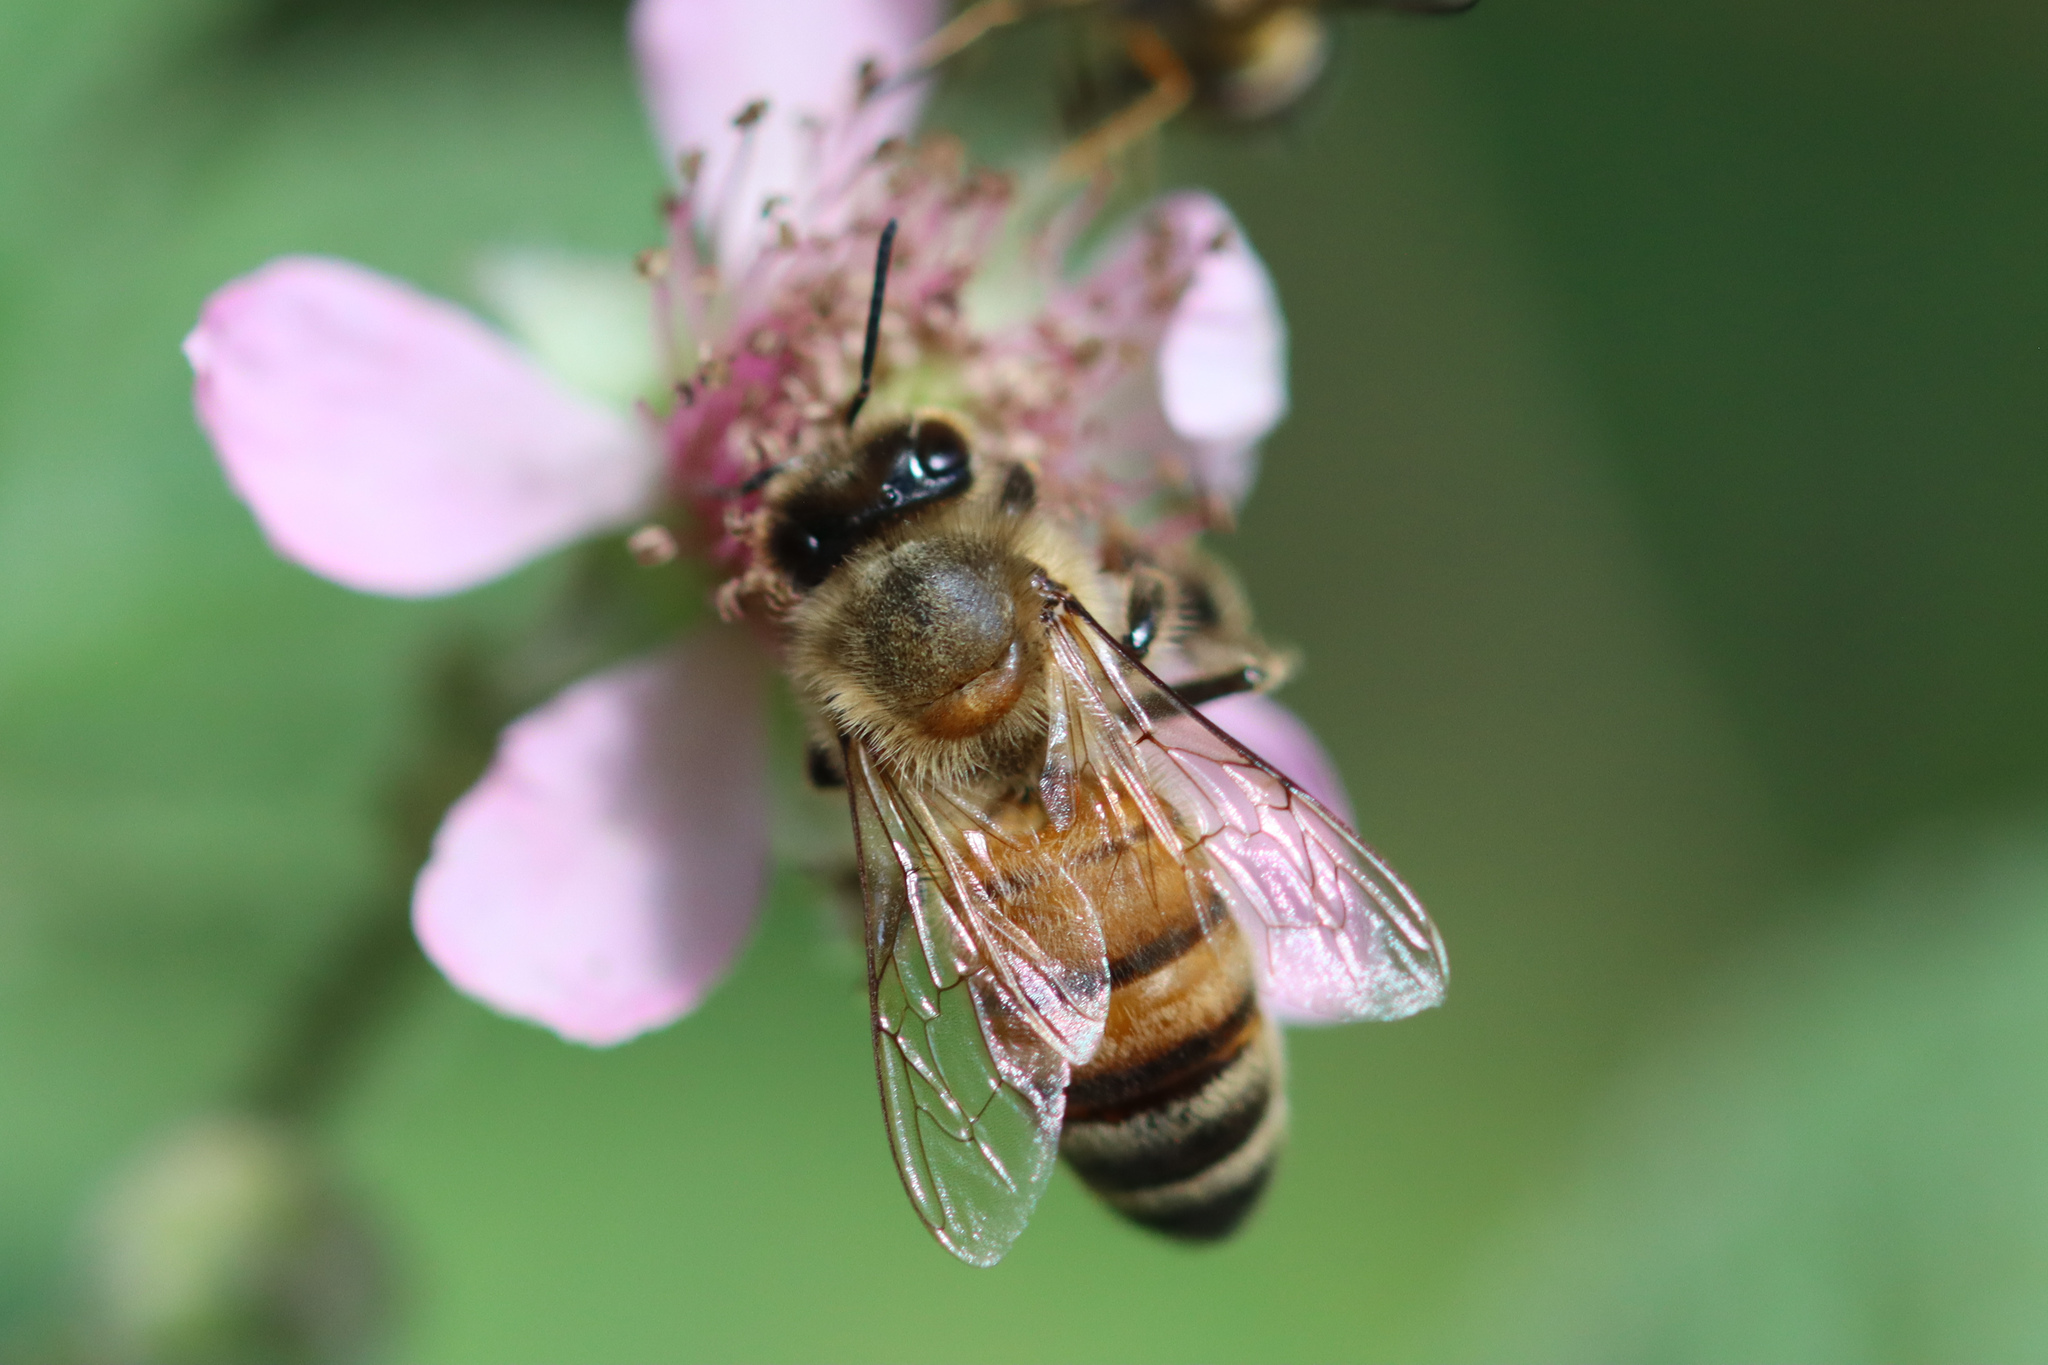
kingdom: Animalia
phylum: Arthropoda
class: Insecta
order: Hymenoptera
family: Apidae
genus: Apis
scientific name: Apis mellifera
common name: Honey bee
